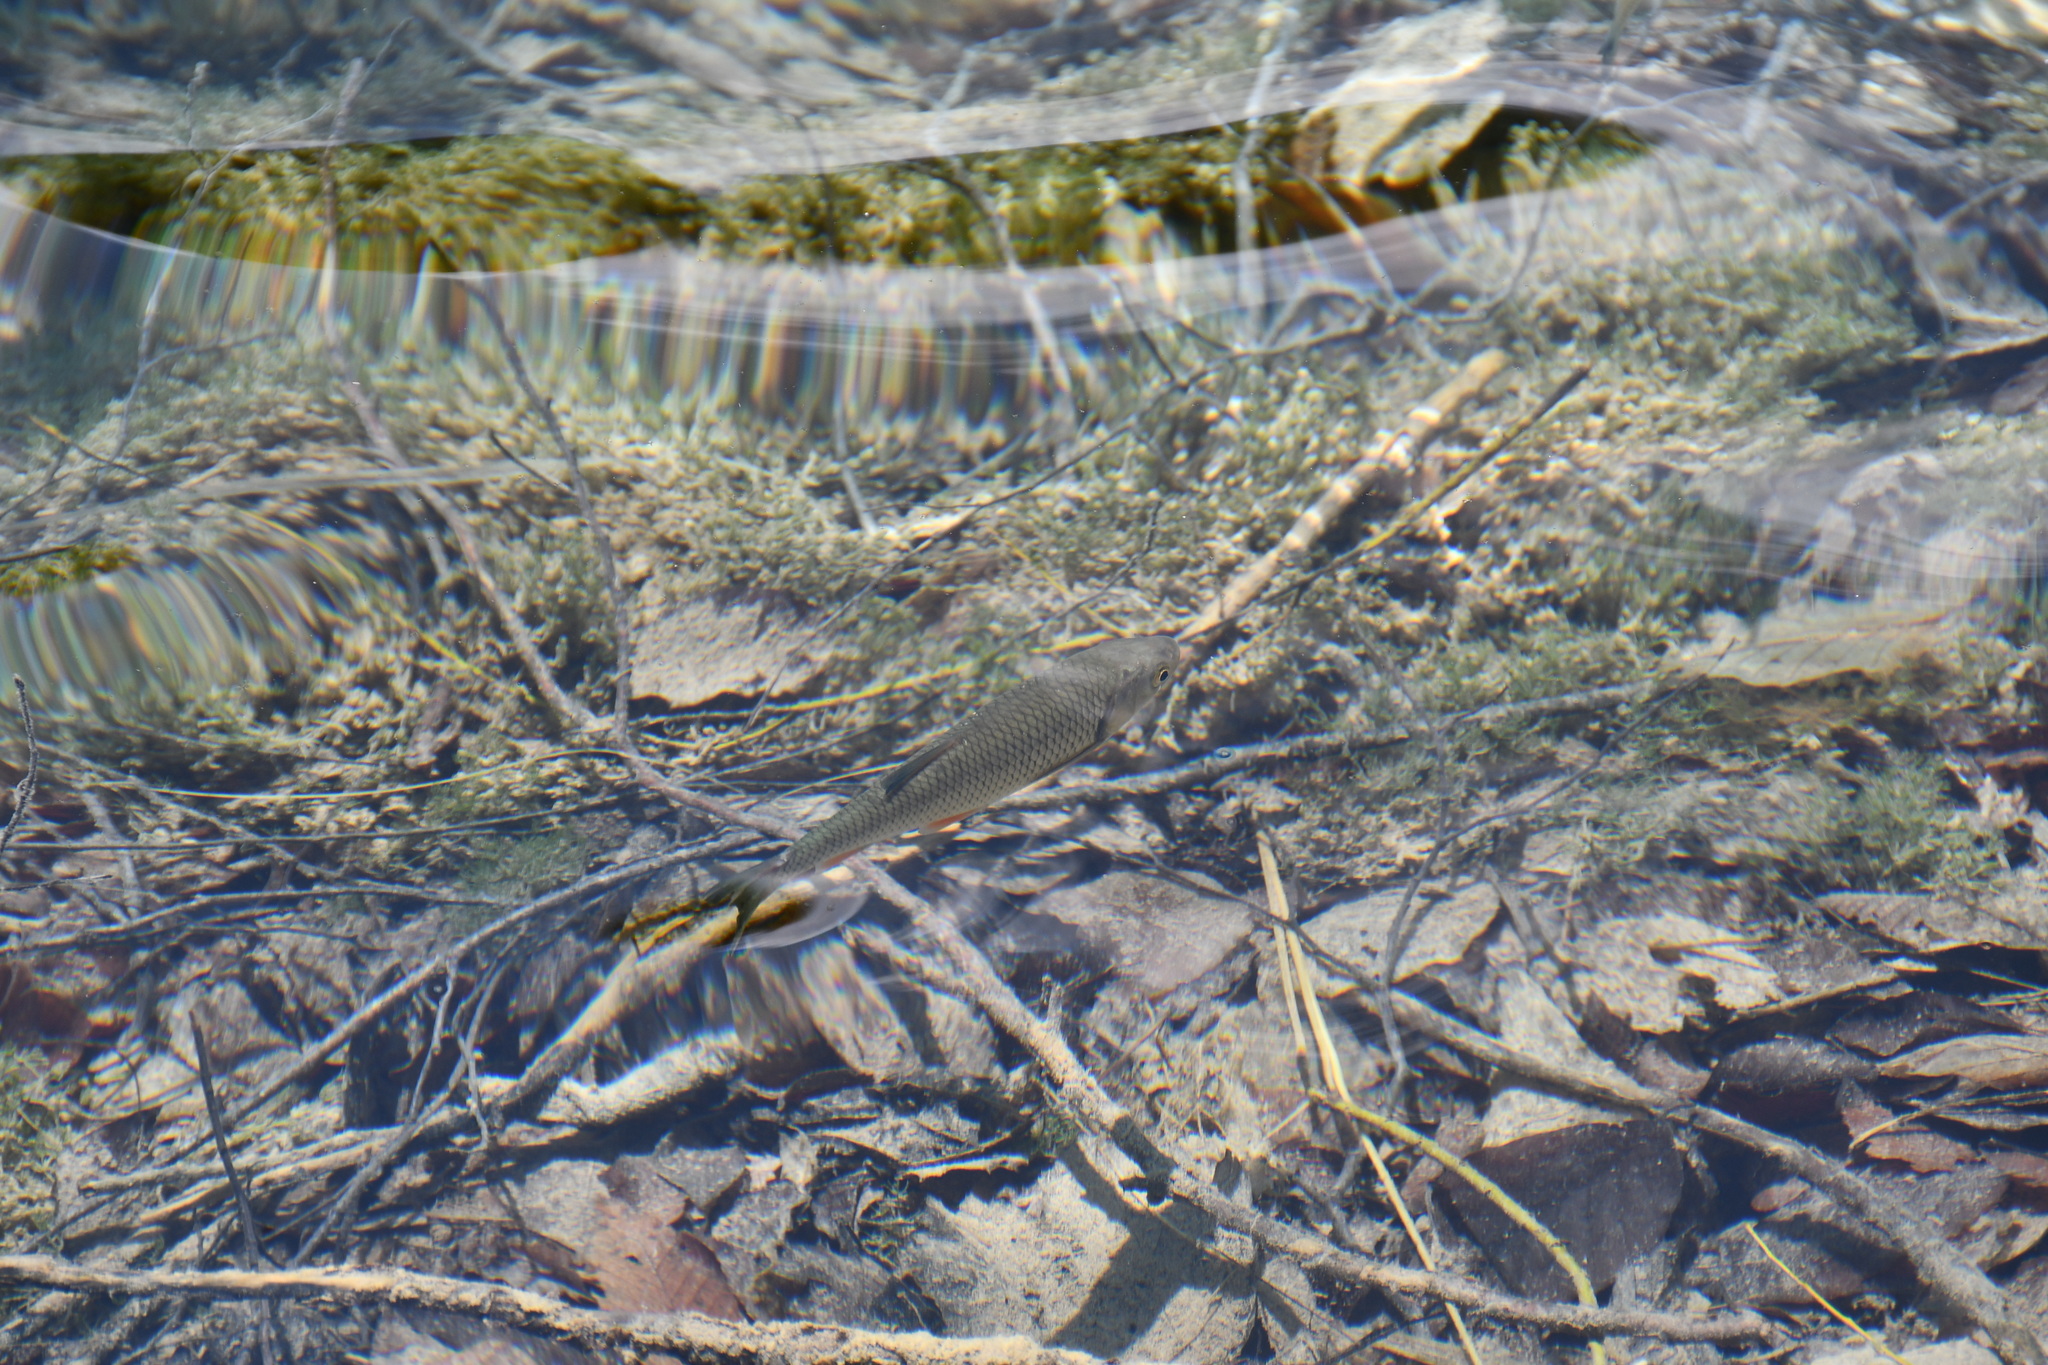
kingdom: Animalia
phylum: Chordata
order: Cypriniformes
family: Cyprinidae
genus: Squalius
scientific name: Squalius cephalus
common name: Chub
